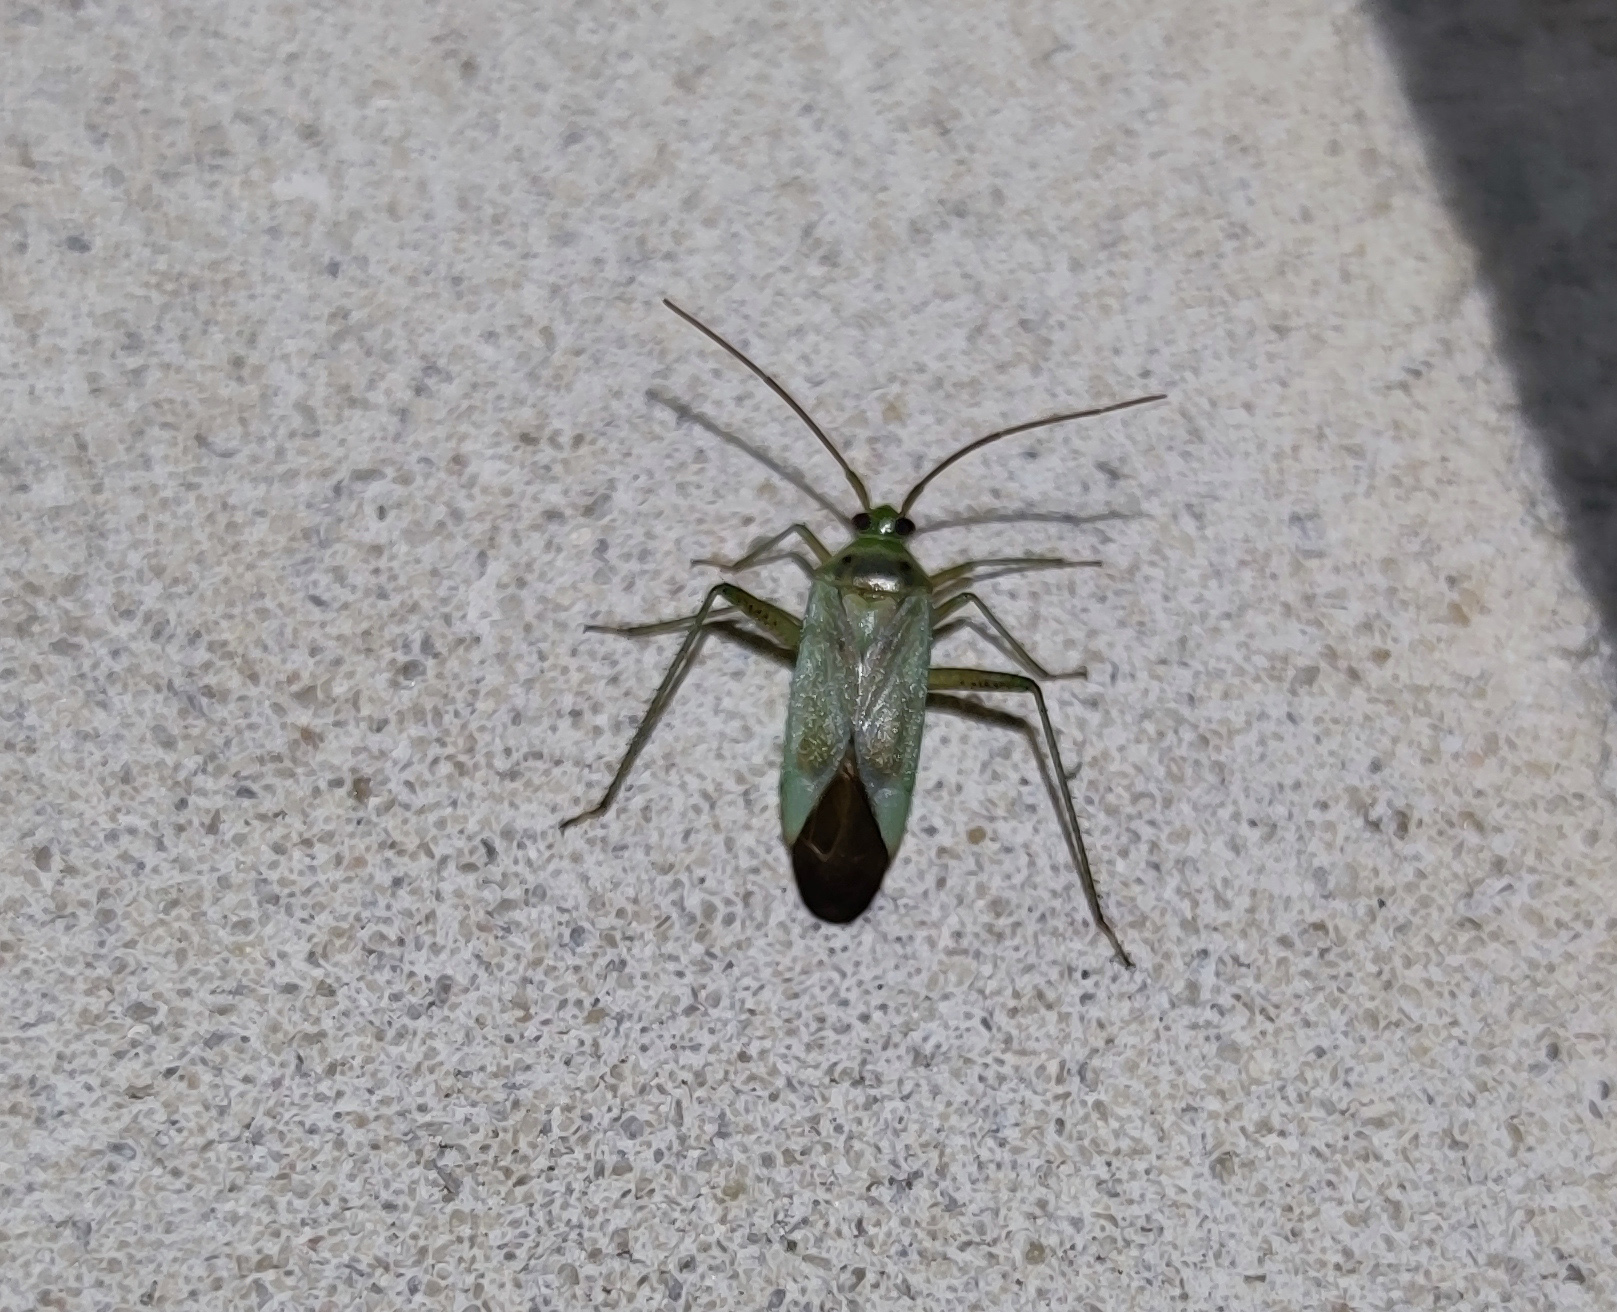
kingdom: Animalia
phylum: Arthropoda
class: Insecta
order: Hemiptera
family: Miridae
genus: Adelphocoris
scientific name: Adelphocoris lineolatus
